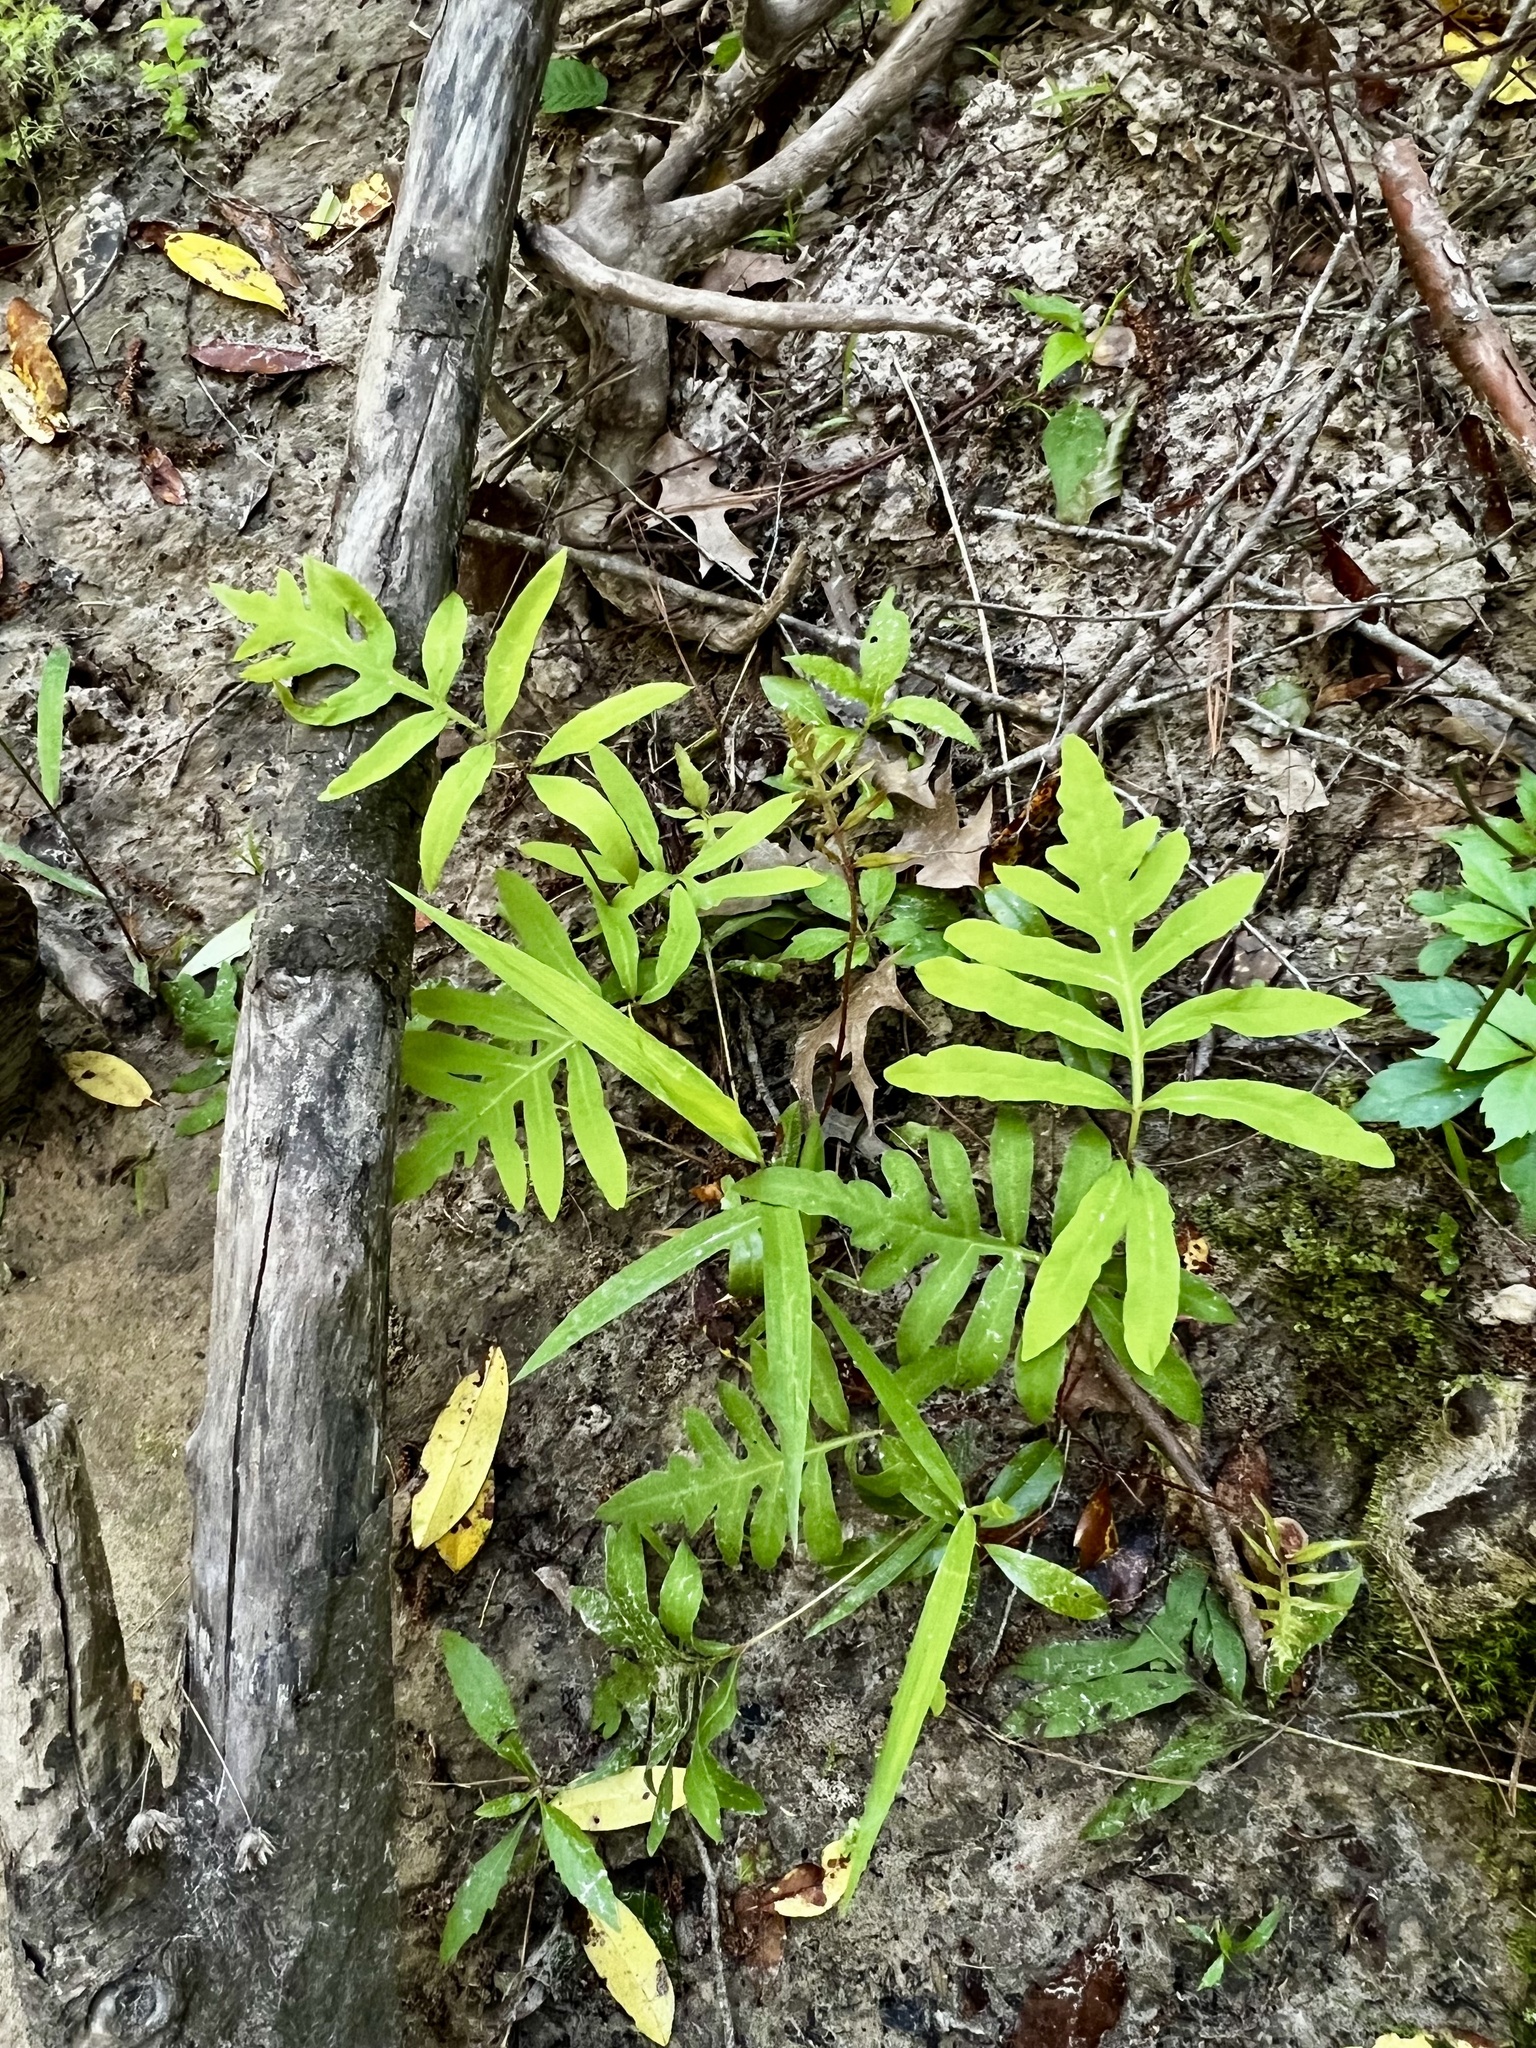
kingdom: Plantae
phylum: Tracheophyta
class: Polypodiopsida
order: Polypodiales
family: Onocleaceae
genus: Onoclea
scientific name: Onoclea sensibilis
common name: Sensitive fern
